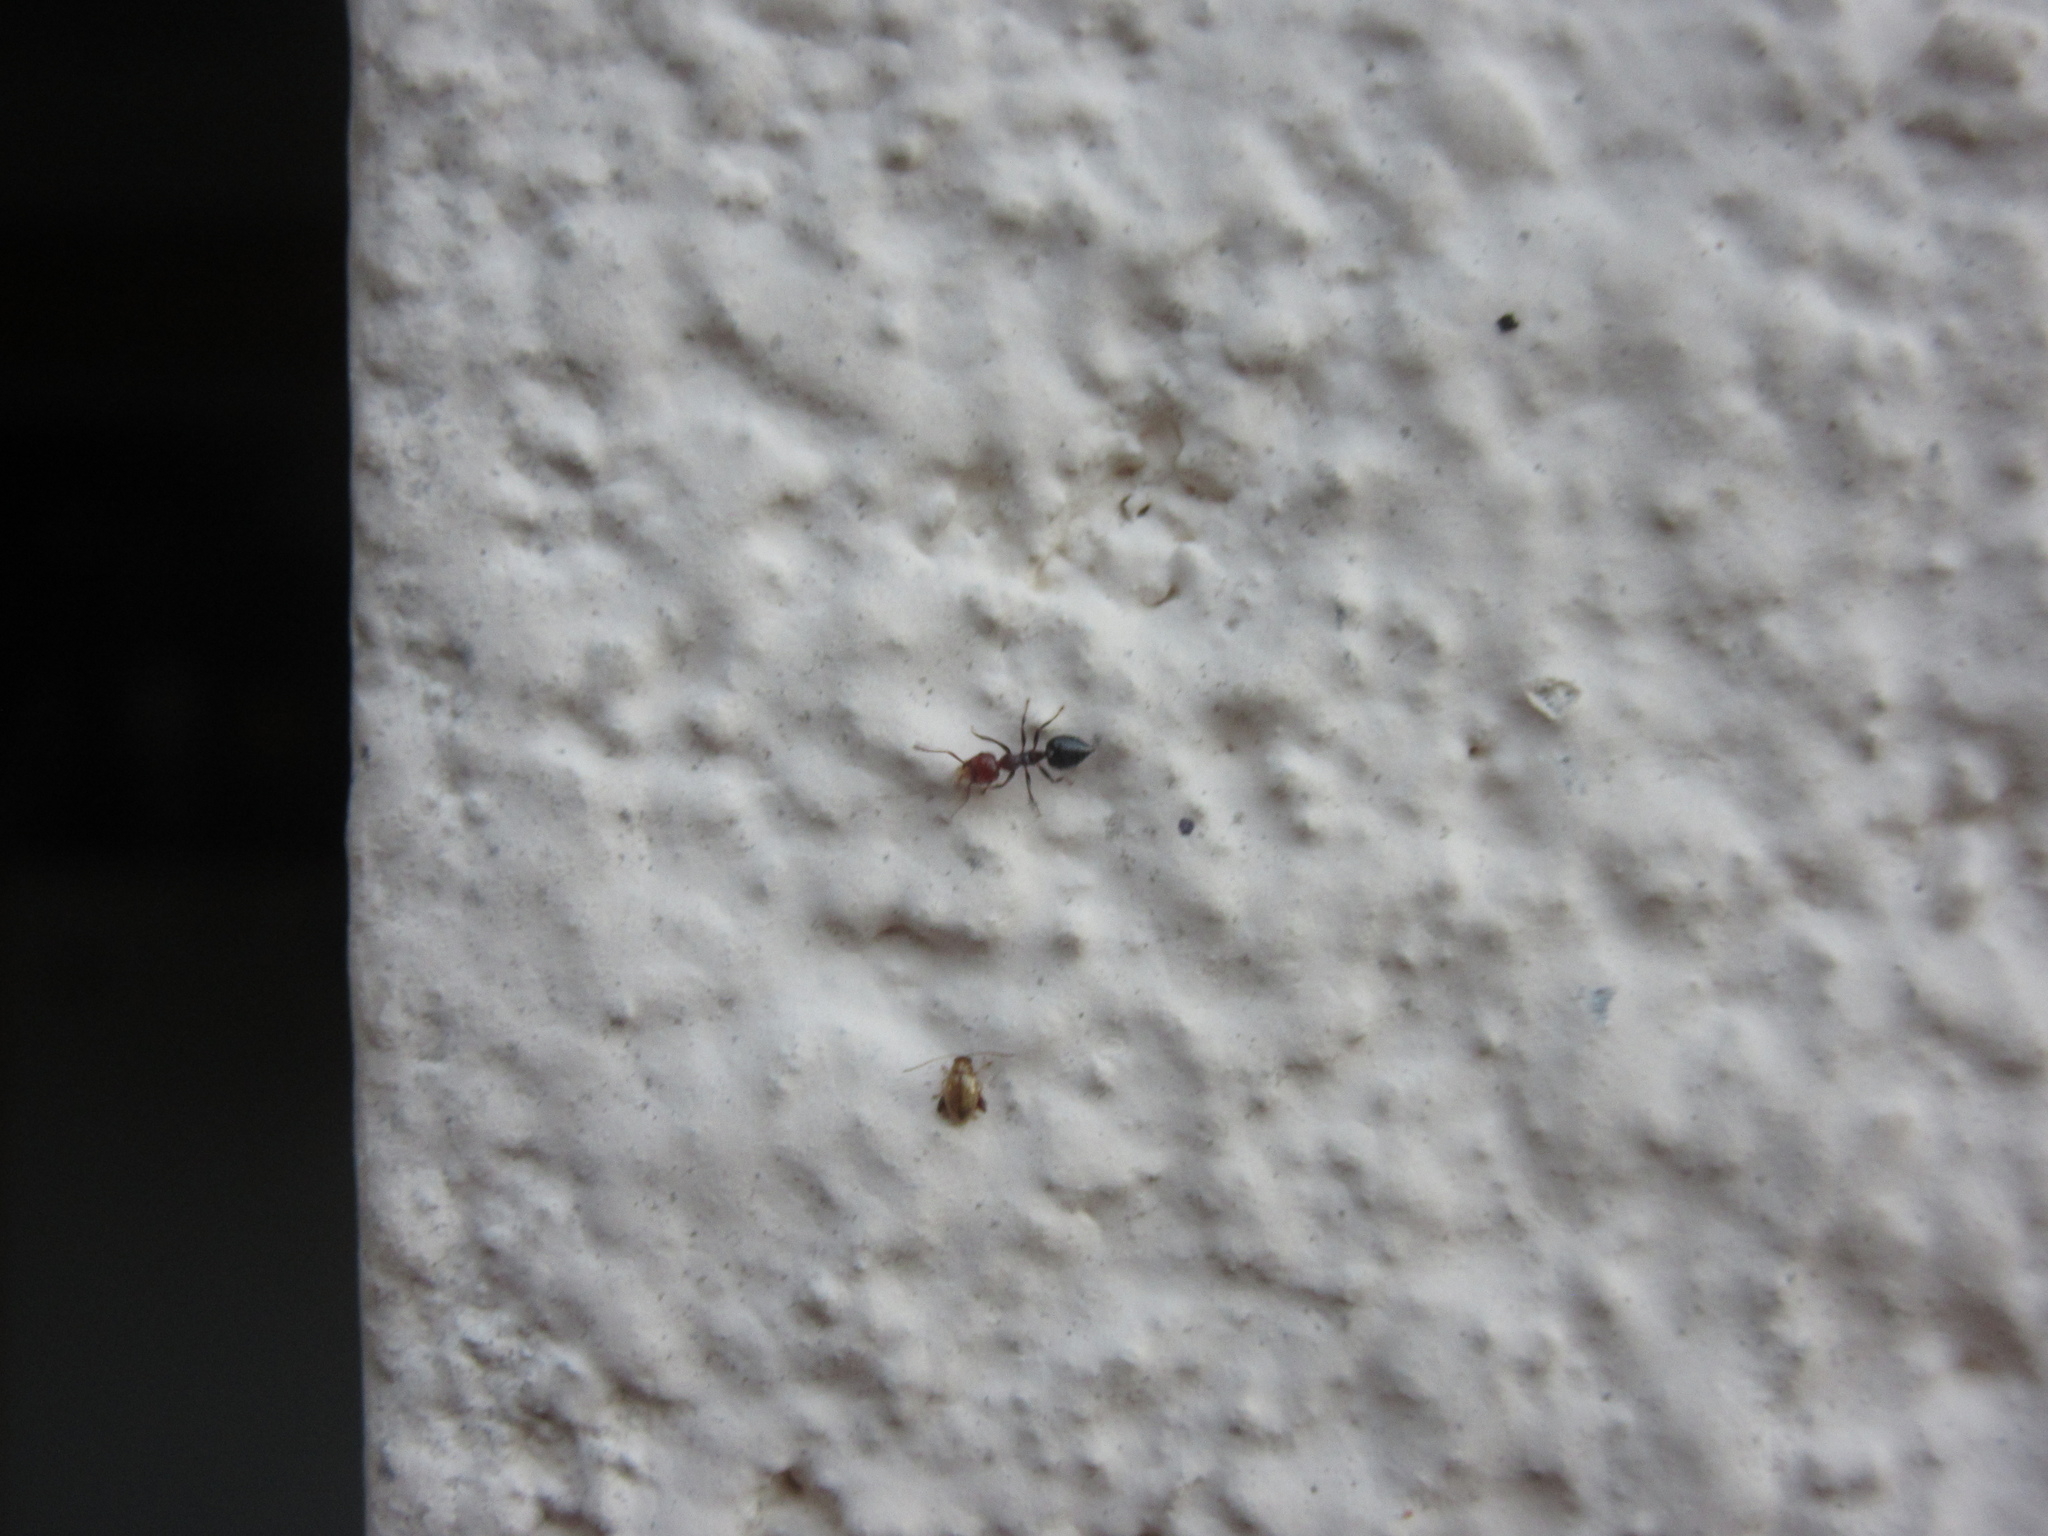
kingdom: Animalia
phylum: Arthropoda
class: Insecta
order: Hymenoptera
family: Formicidae
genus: Crematogaster
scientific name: Crematogaster scutellaris
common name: Fourmi du liège
